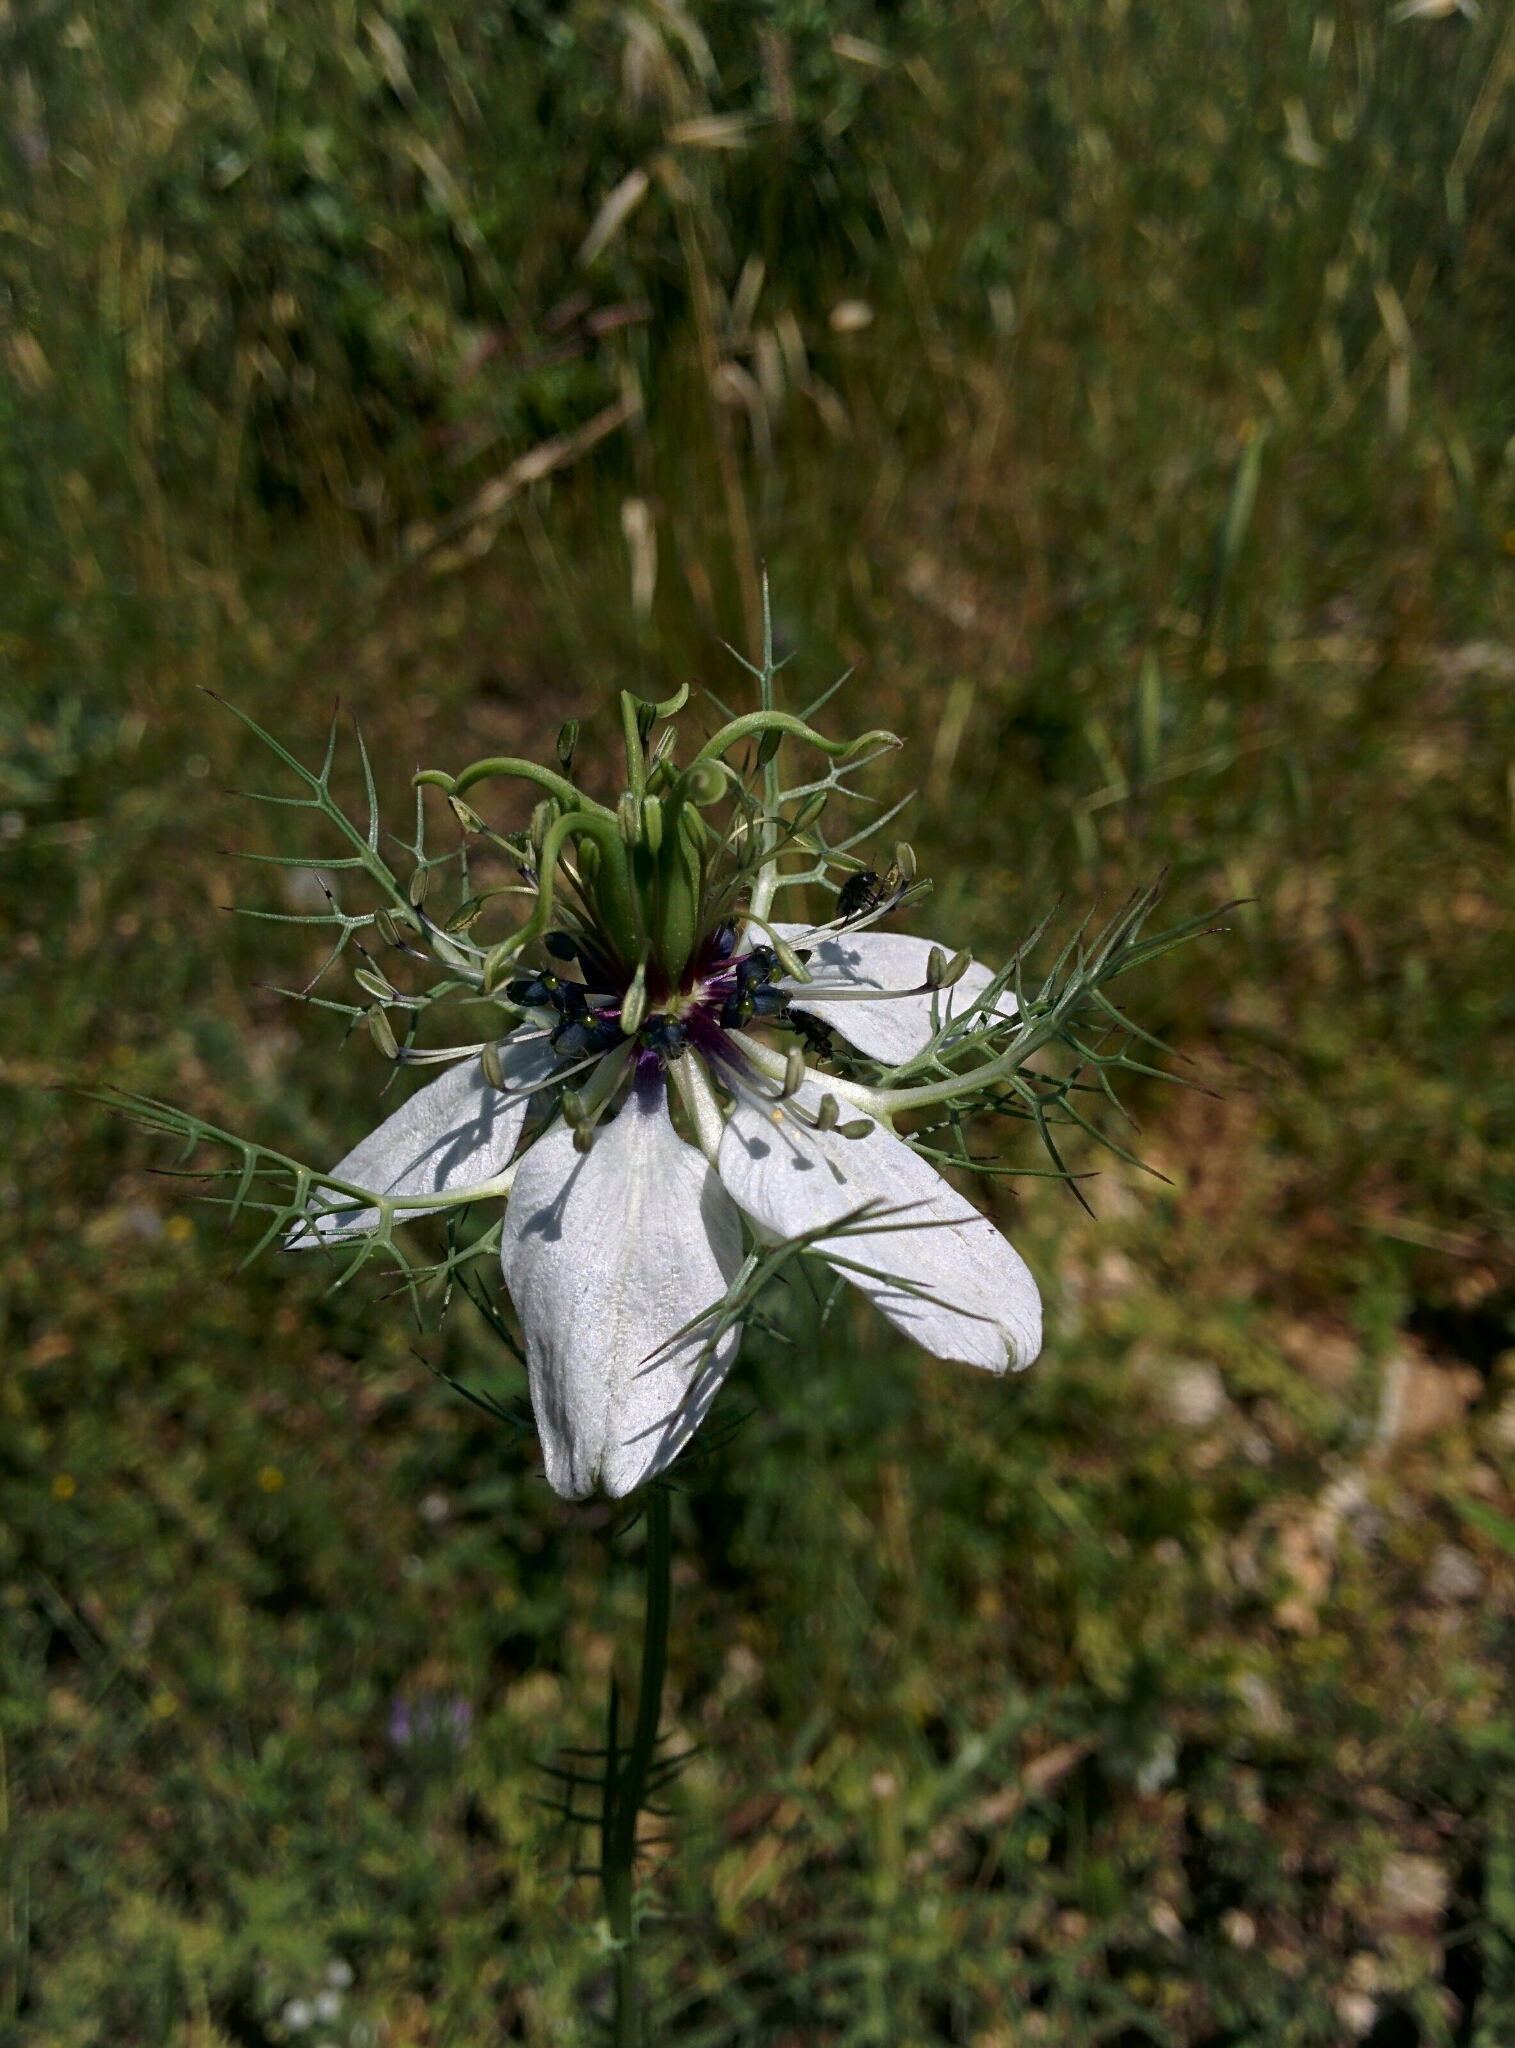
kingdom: Plantae
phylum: Tracheophyta
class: Magnoliopsida
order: Ranunculales
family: Ranunculaceae
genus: Nigella
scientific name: Nigella damascena
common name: Love-in-a-mist
